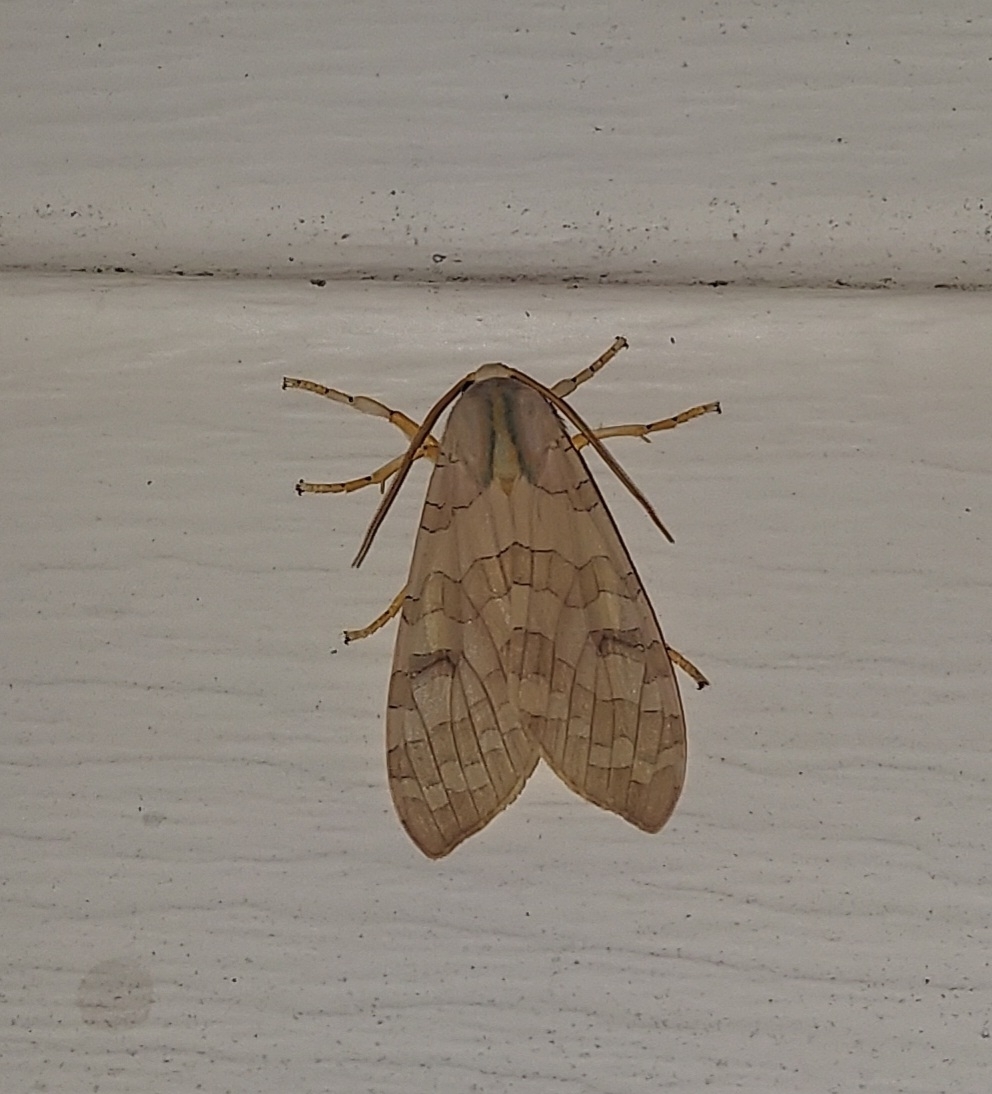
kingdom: Animalia
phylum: Arthropoda
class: Insecta
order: Lepidoptera
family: Erebidae
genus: Halysidota
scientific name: Halysidota
